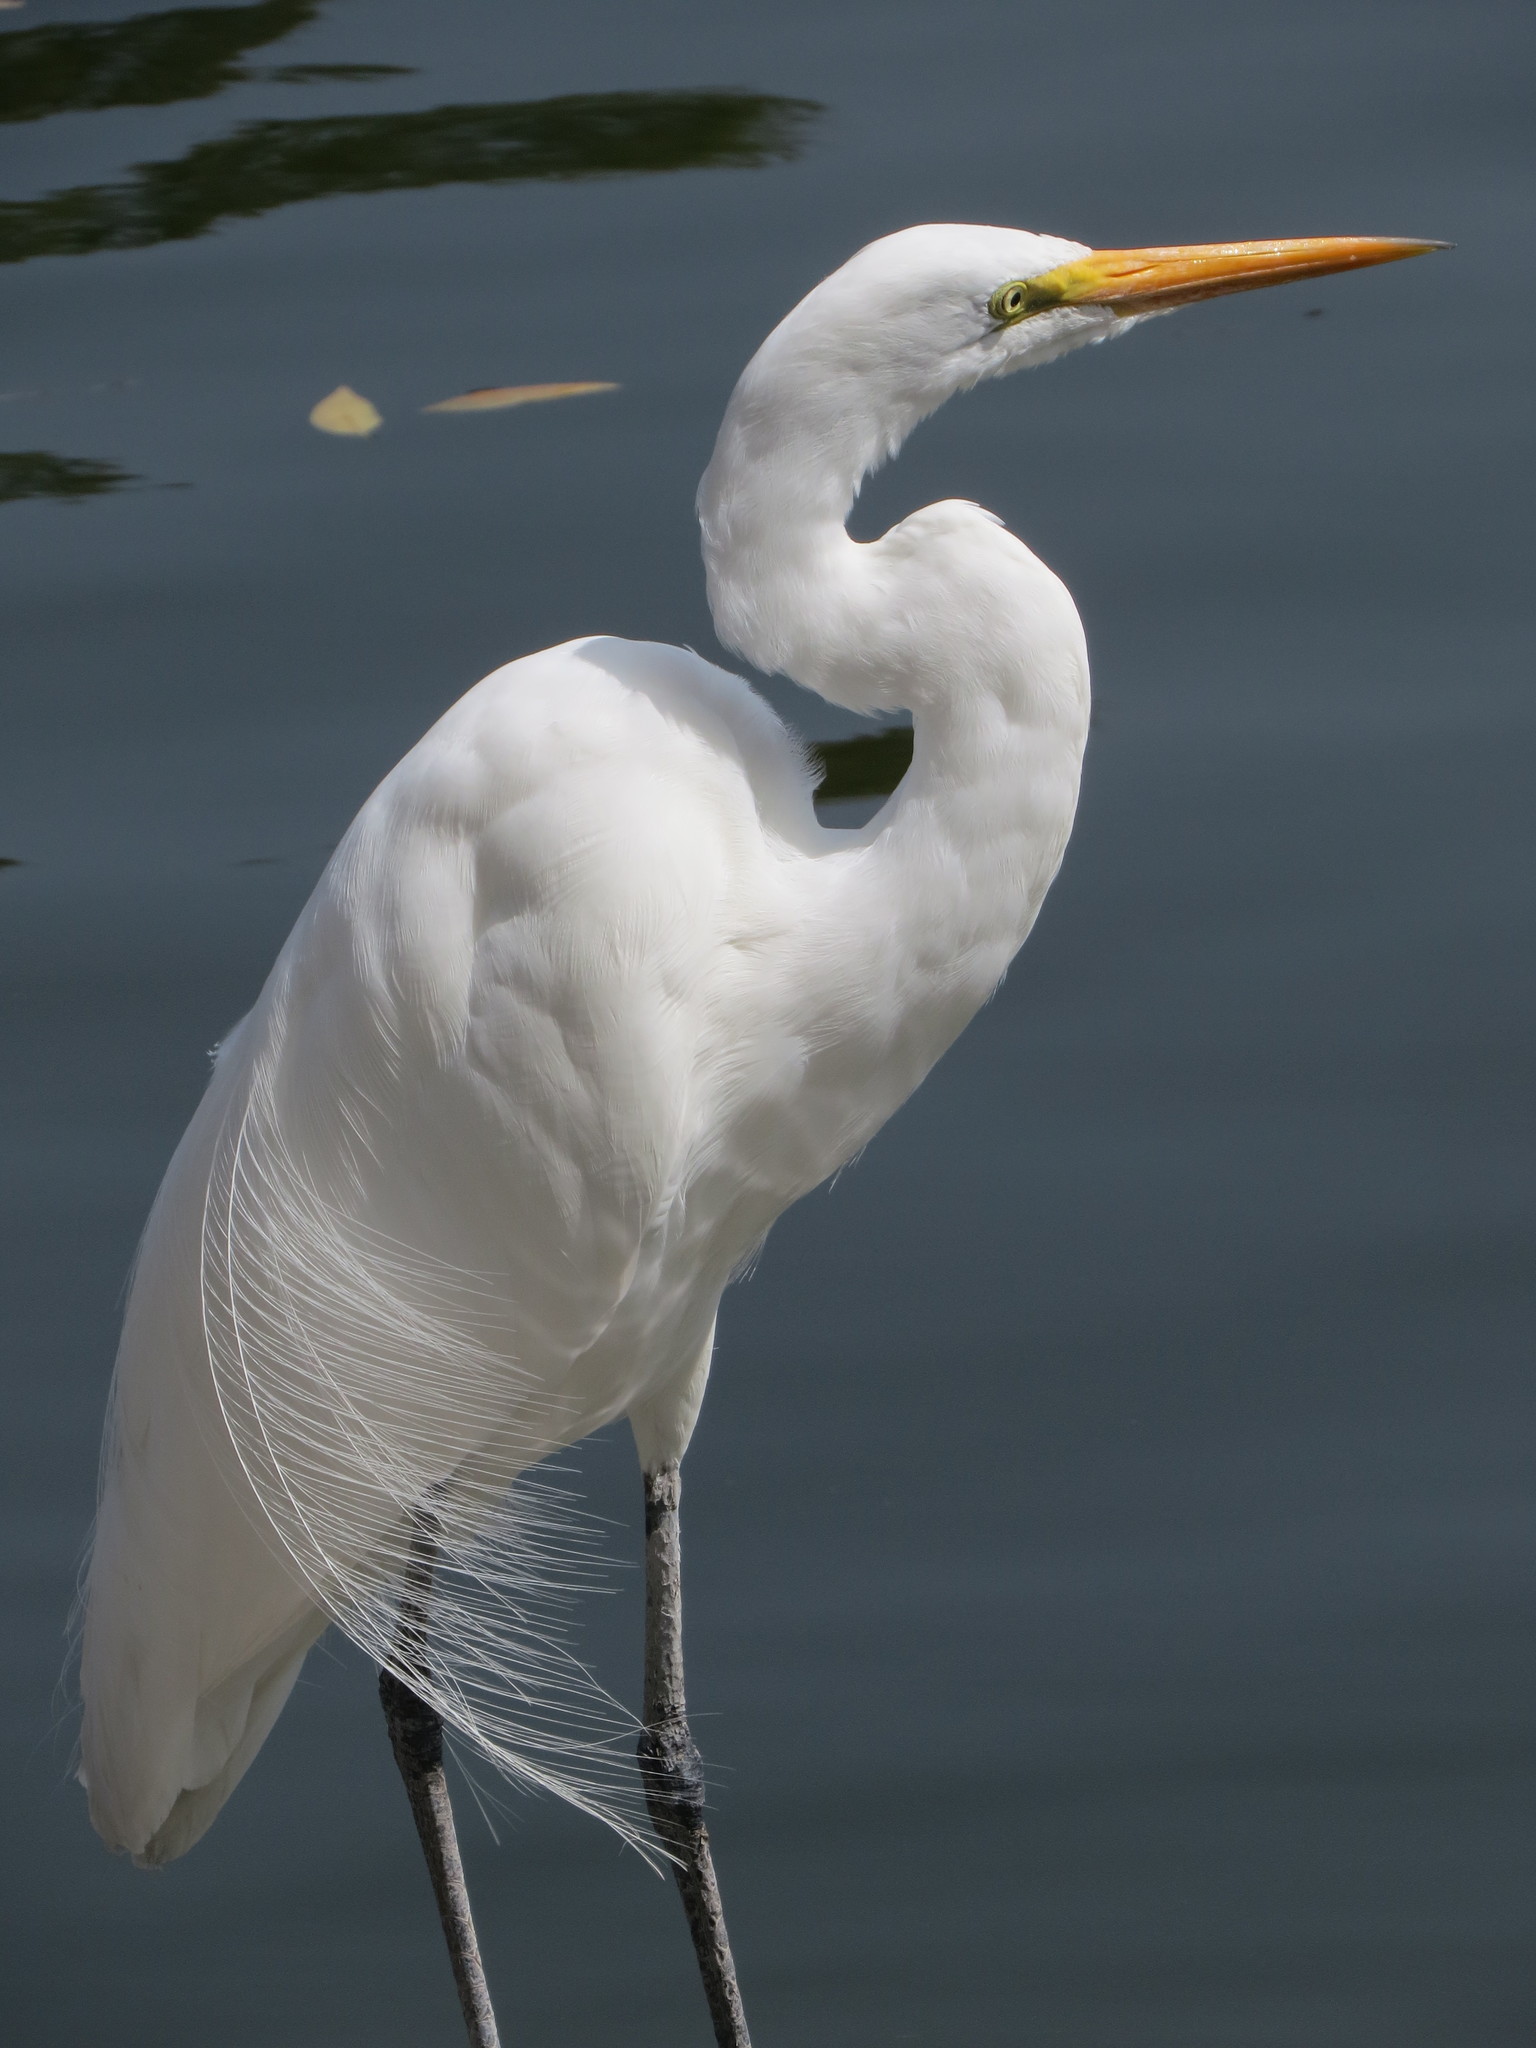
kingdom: Animalia
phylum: Chordata
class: Aves
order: Pelecaniformes
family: Ardeidae
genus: Ardea
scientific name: Ardea alba
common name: Great egret
